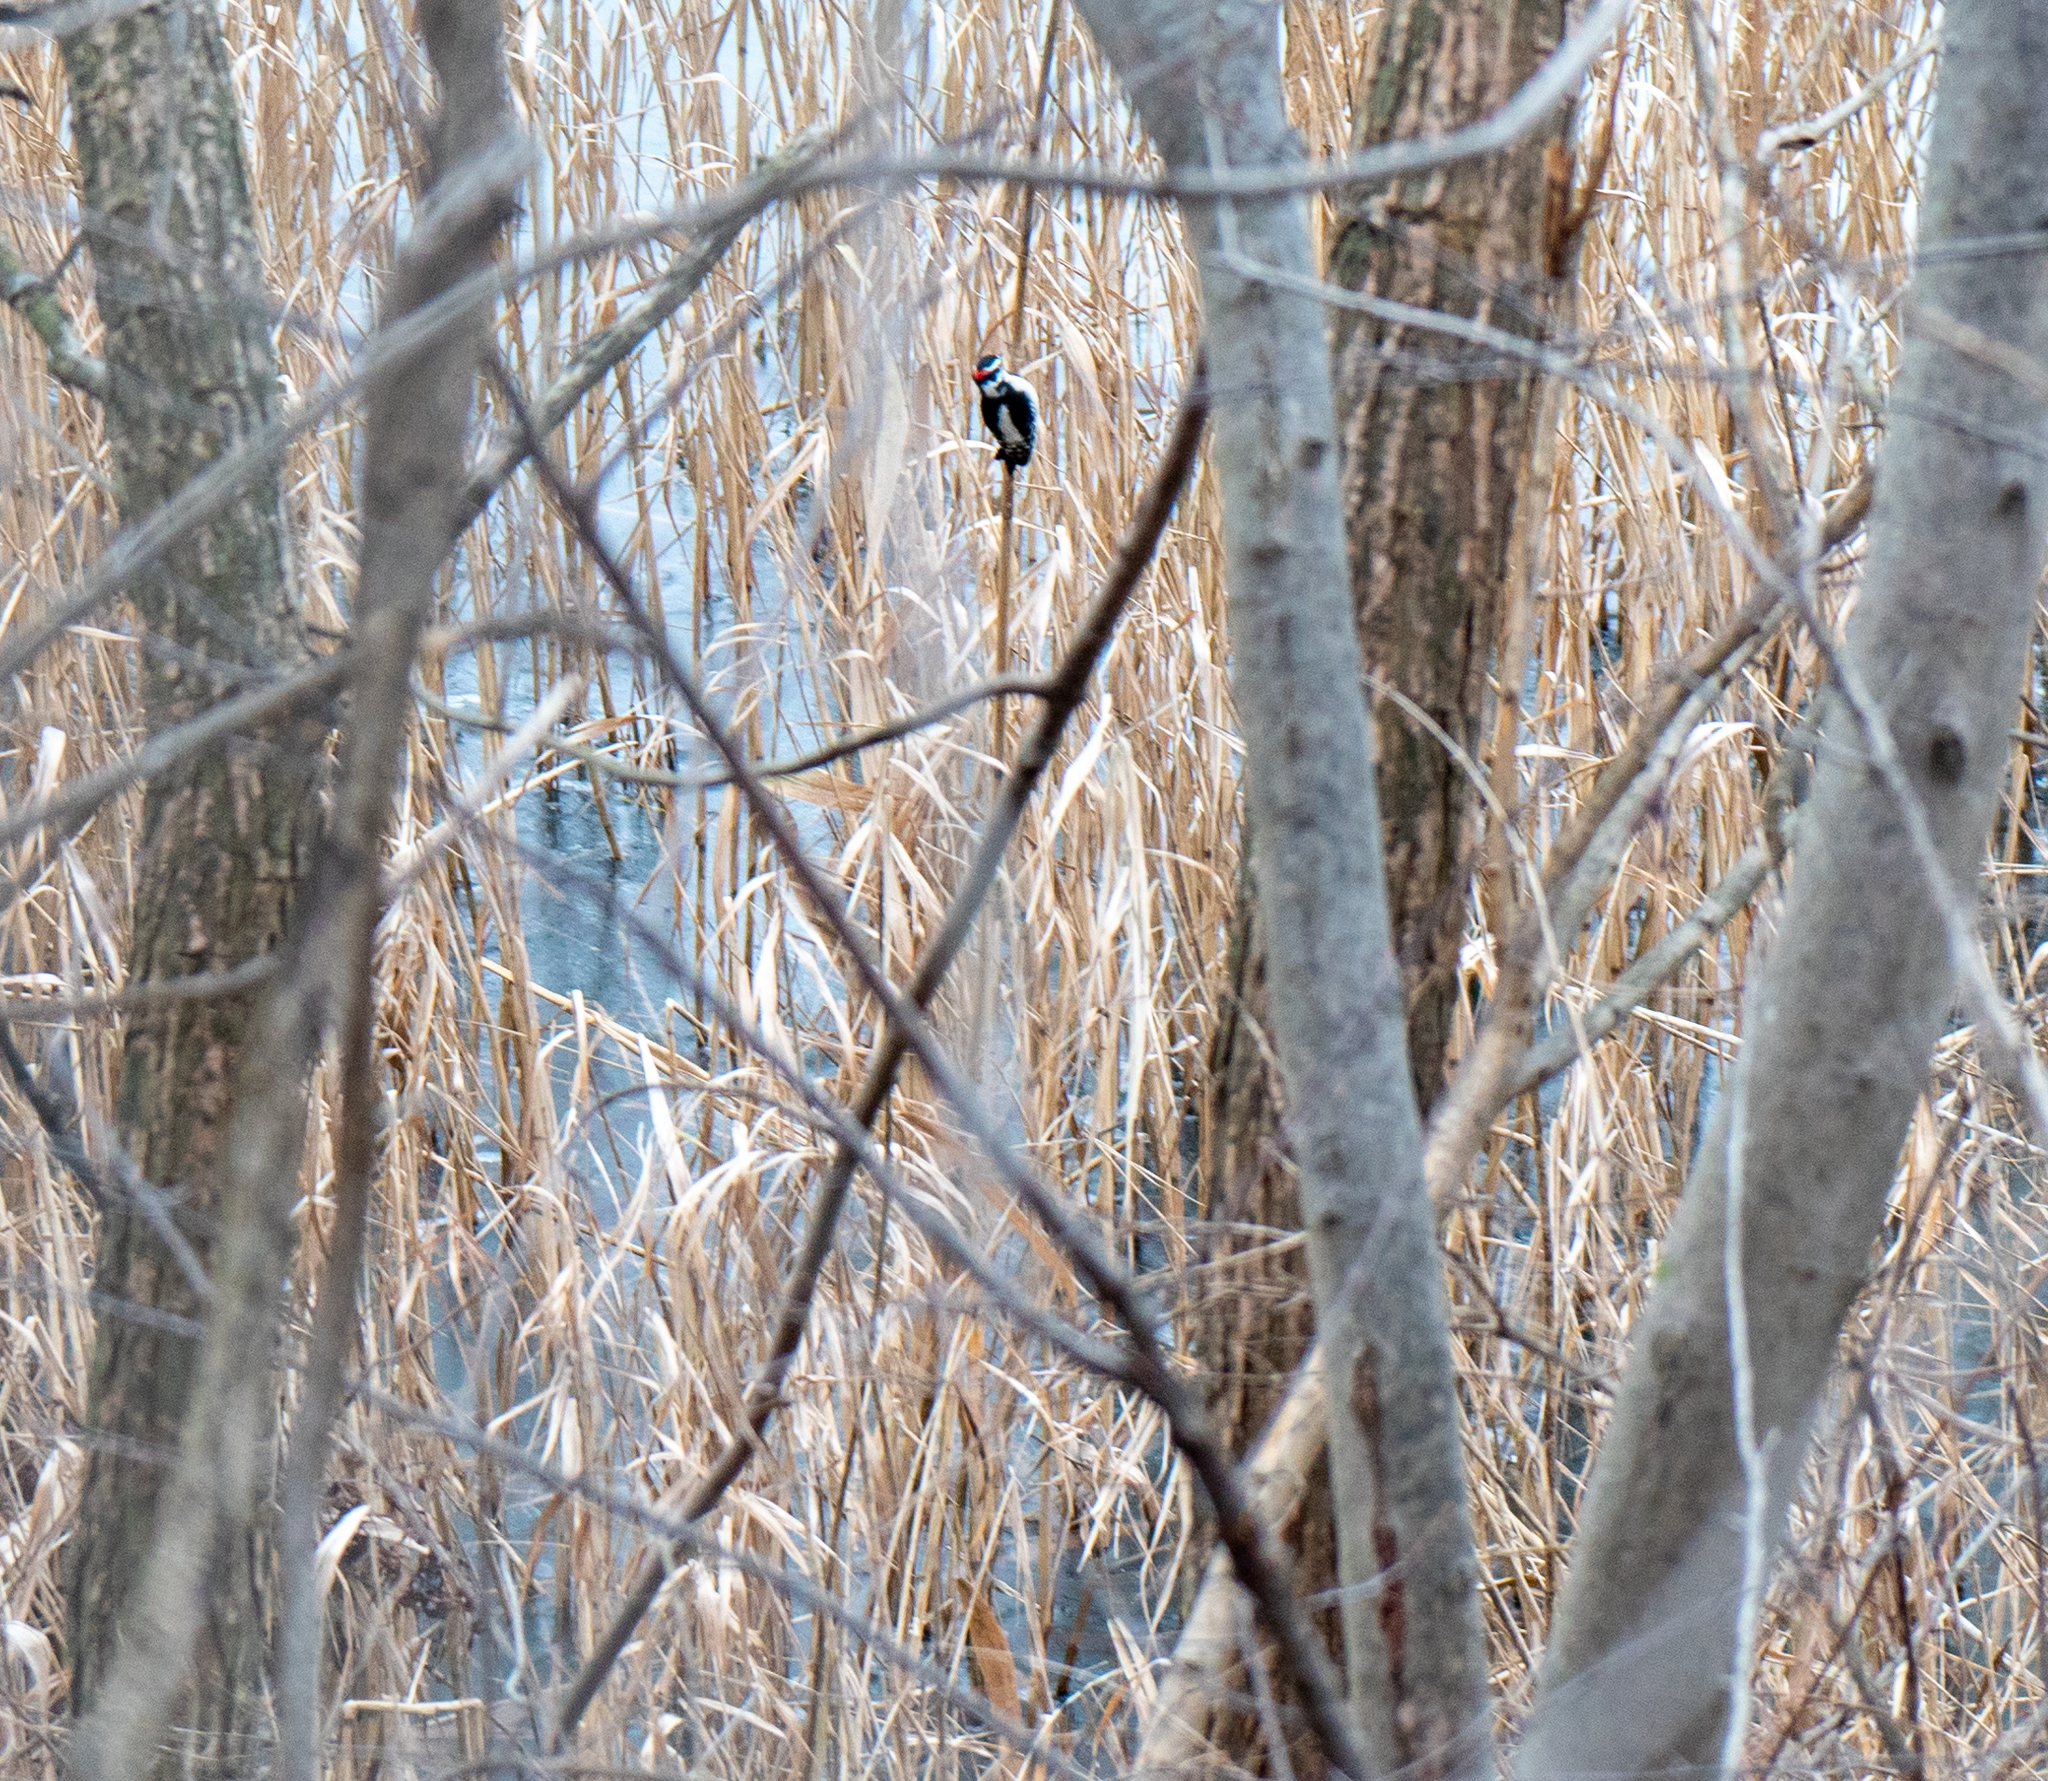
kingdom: Animalia
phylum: Chordata
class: Aves
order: Piciformes
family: Picidae
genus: Dryobates
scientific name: Dryobates pubescens
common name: Downy woodpecker
